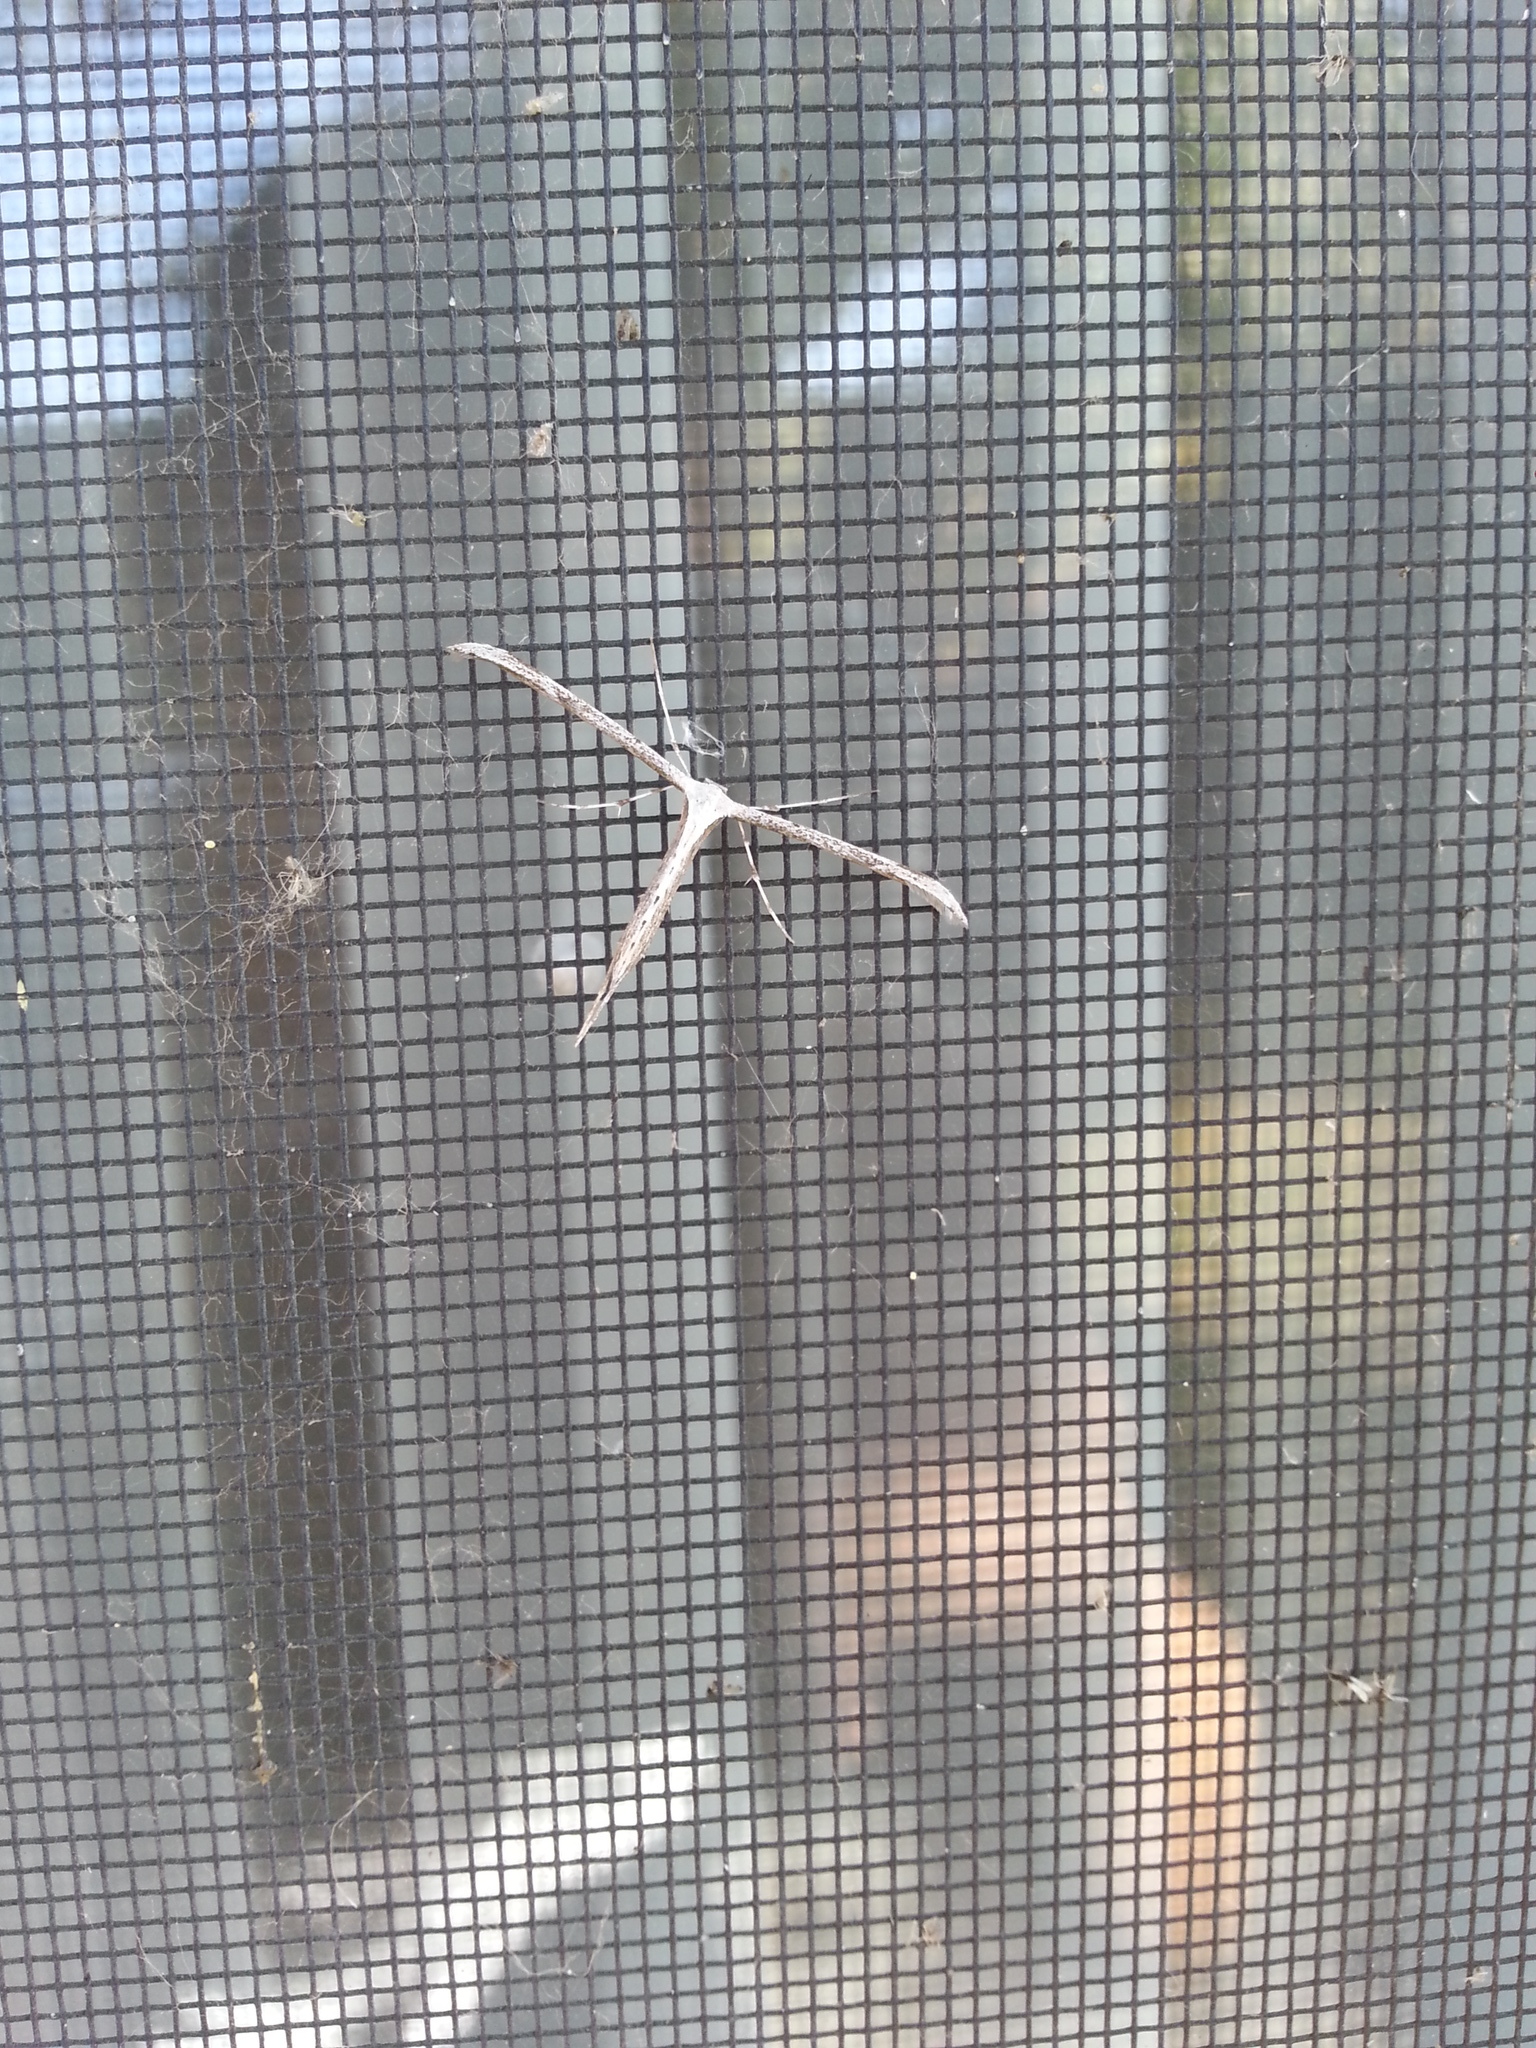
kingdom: Animalia
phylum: Arthropoda
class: Insecta
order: Lepidoptera
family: Pterophoridae
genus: Emmelina
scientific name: Emmelina monodactyla
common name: Common plume
